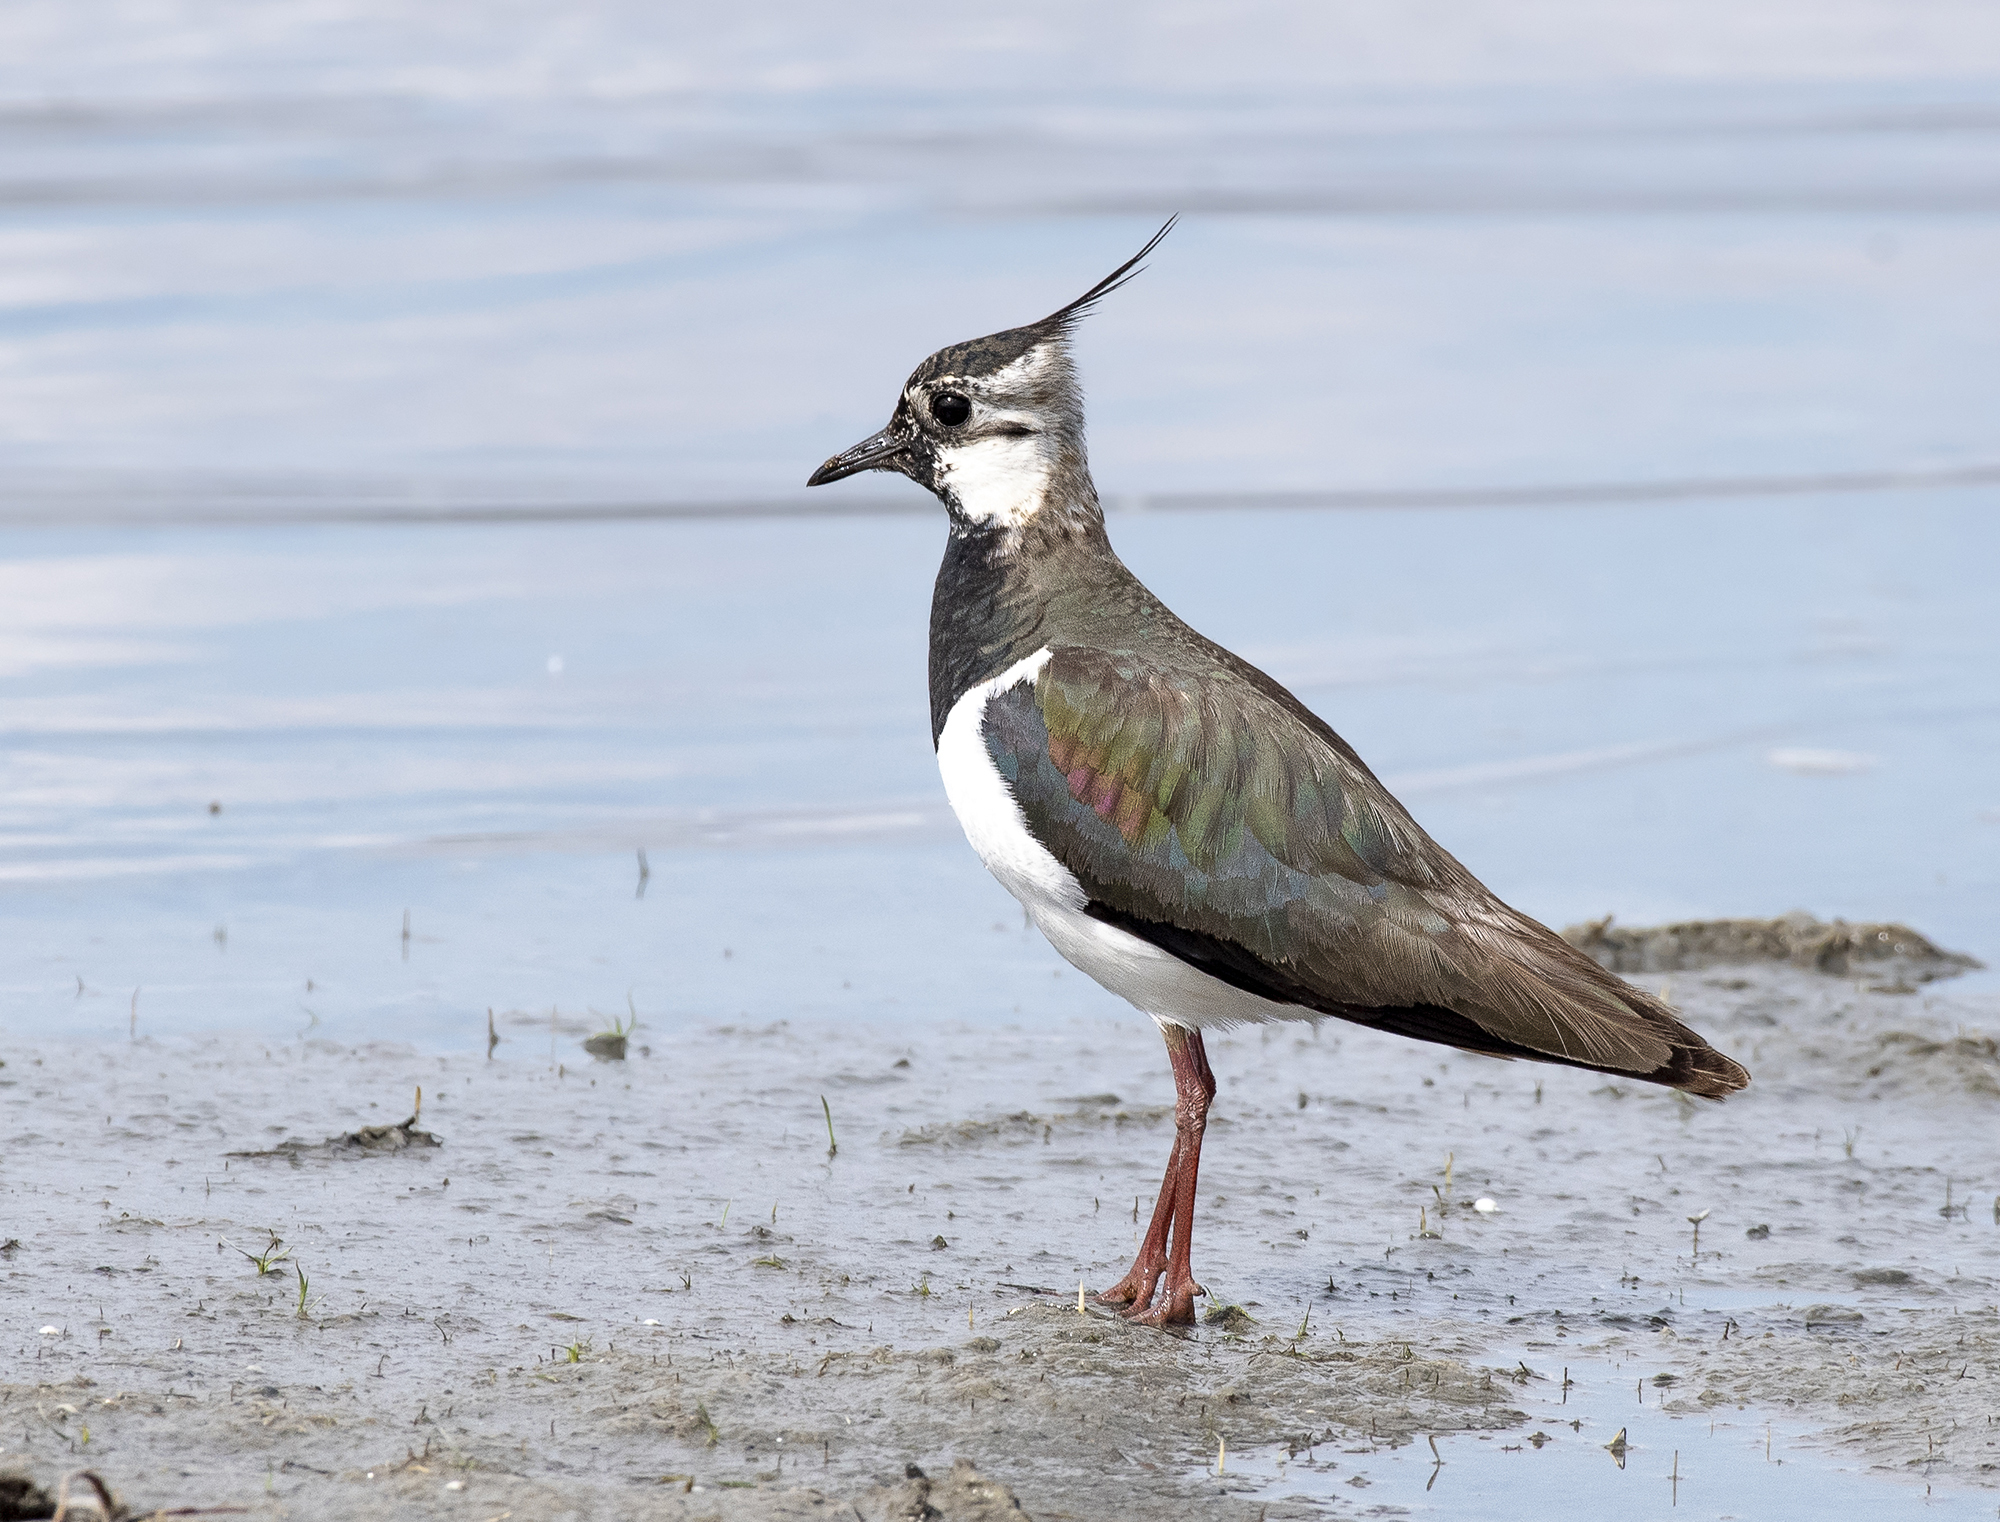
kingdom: Animalia
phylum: Chordata
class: Aves
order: Charadriiformes
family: Charadriidae
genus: Vanellus
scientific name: Vanellus vanellus
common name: Northern lapwing
